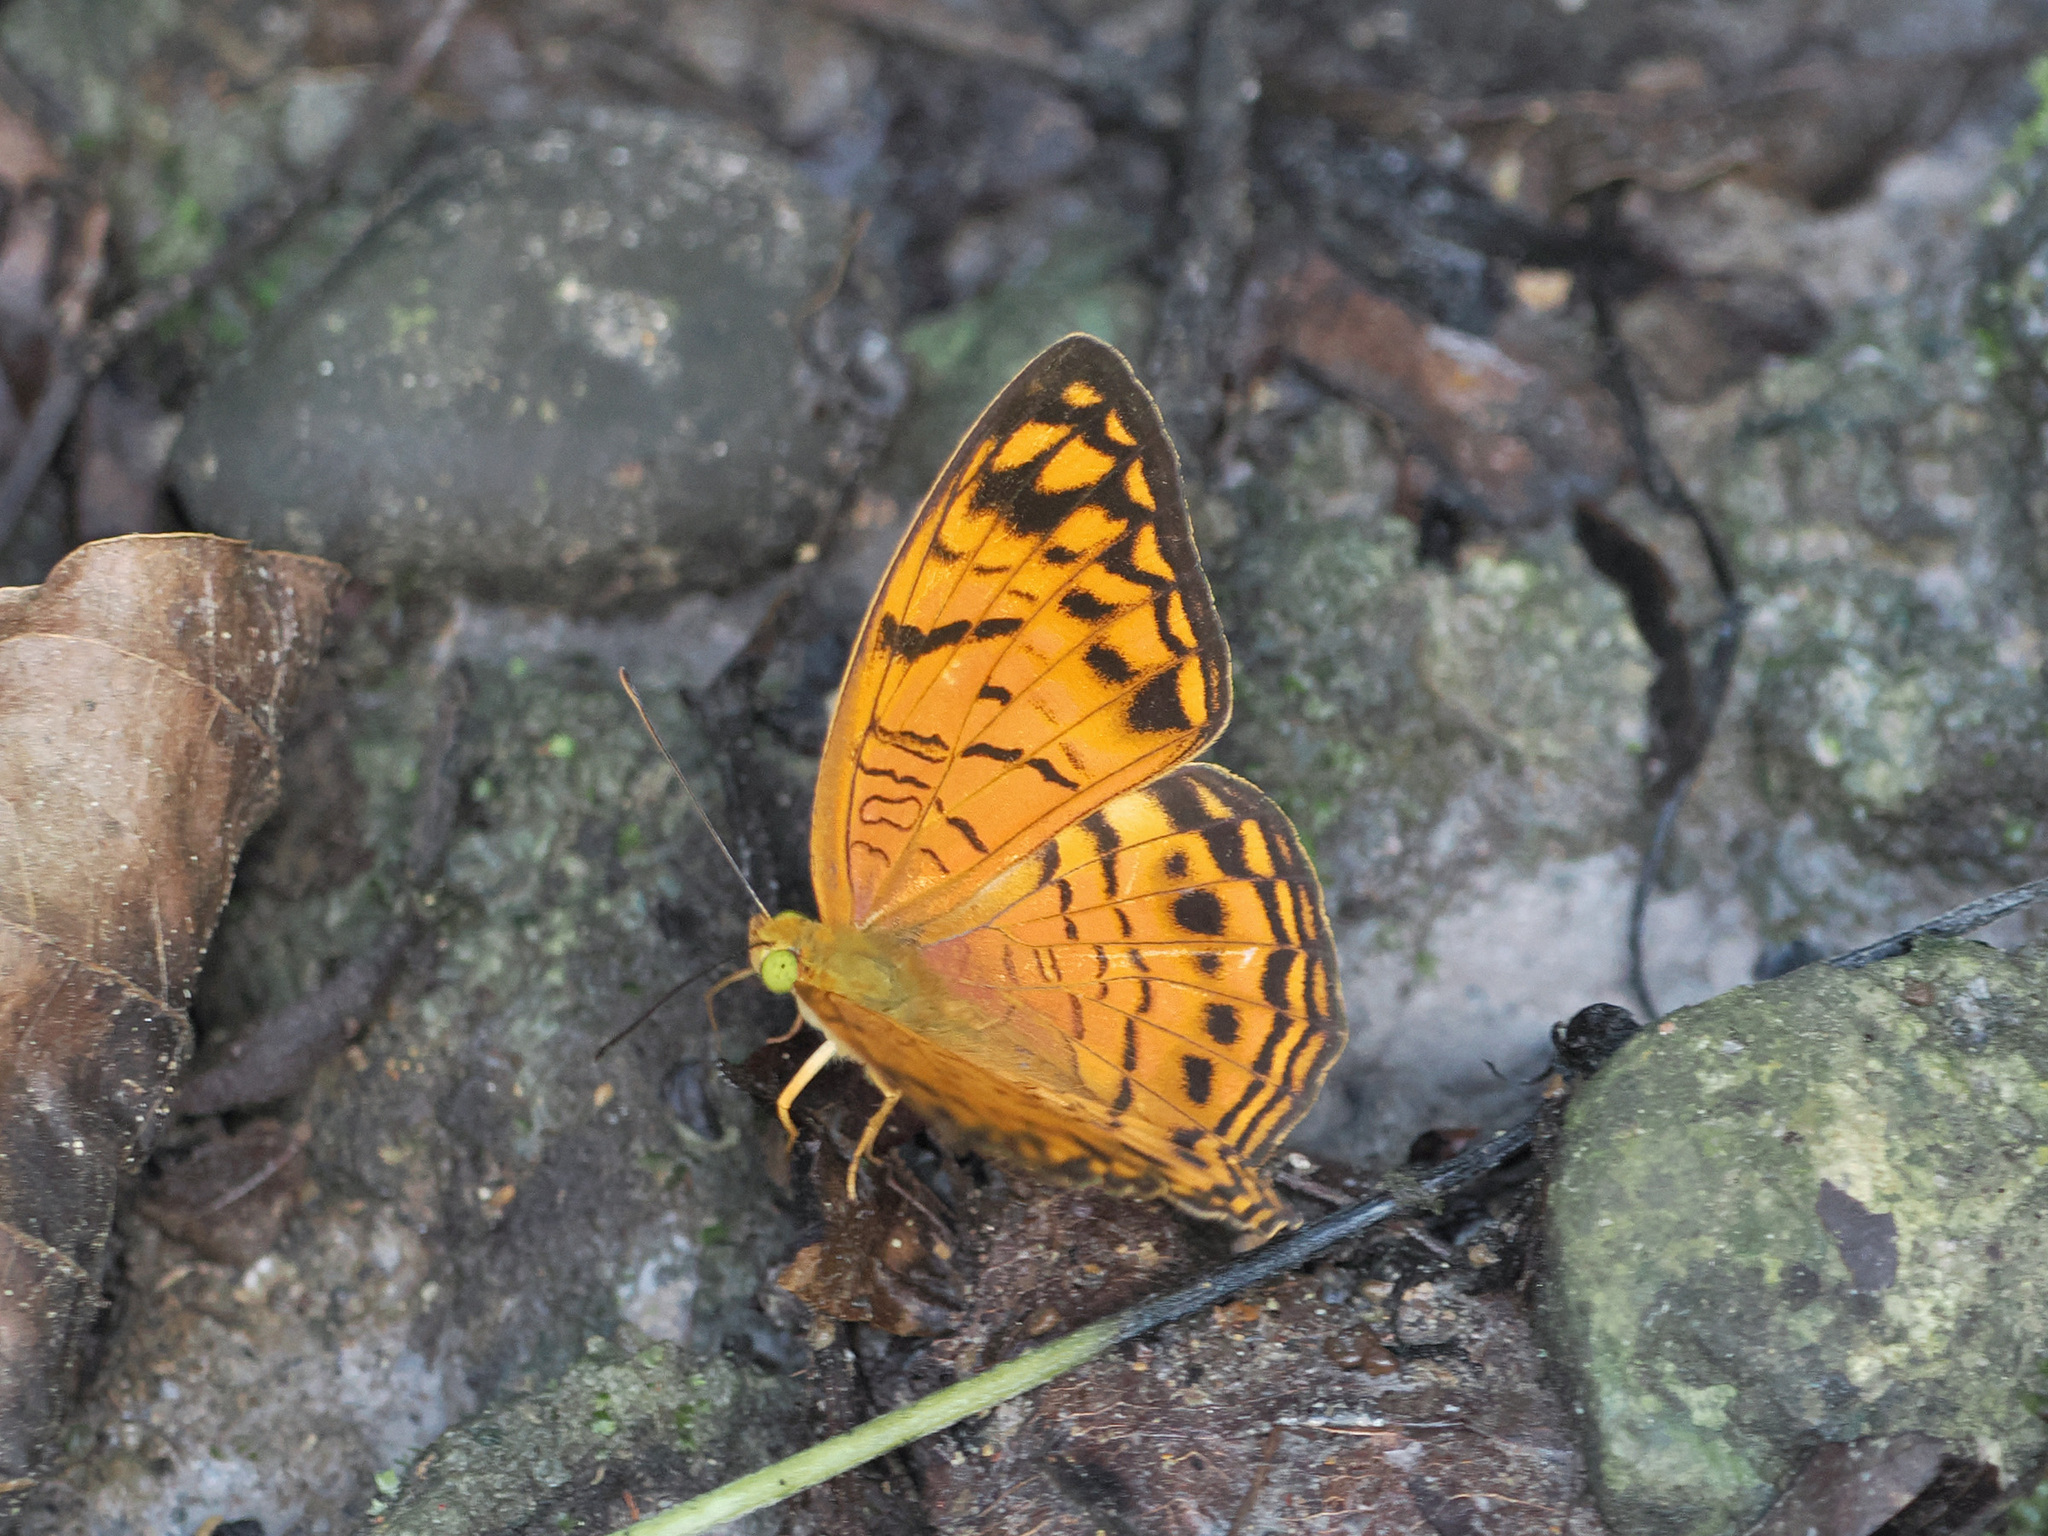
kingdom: Animalia
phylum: Arthropoda
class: Insecta
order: Lepidoptera
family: Nymphalidae
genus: Phalanta
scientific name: Phalanta alcippe
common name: Small leopard
